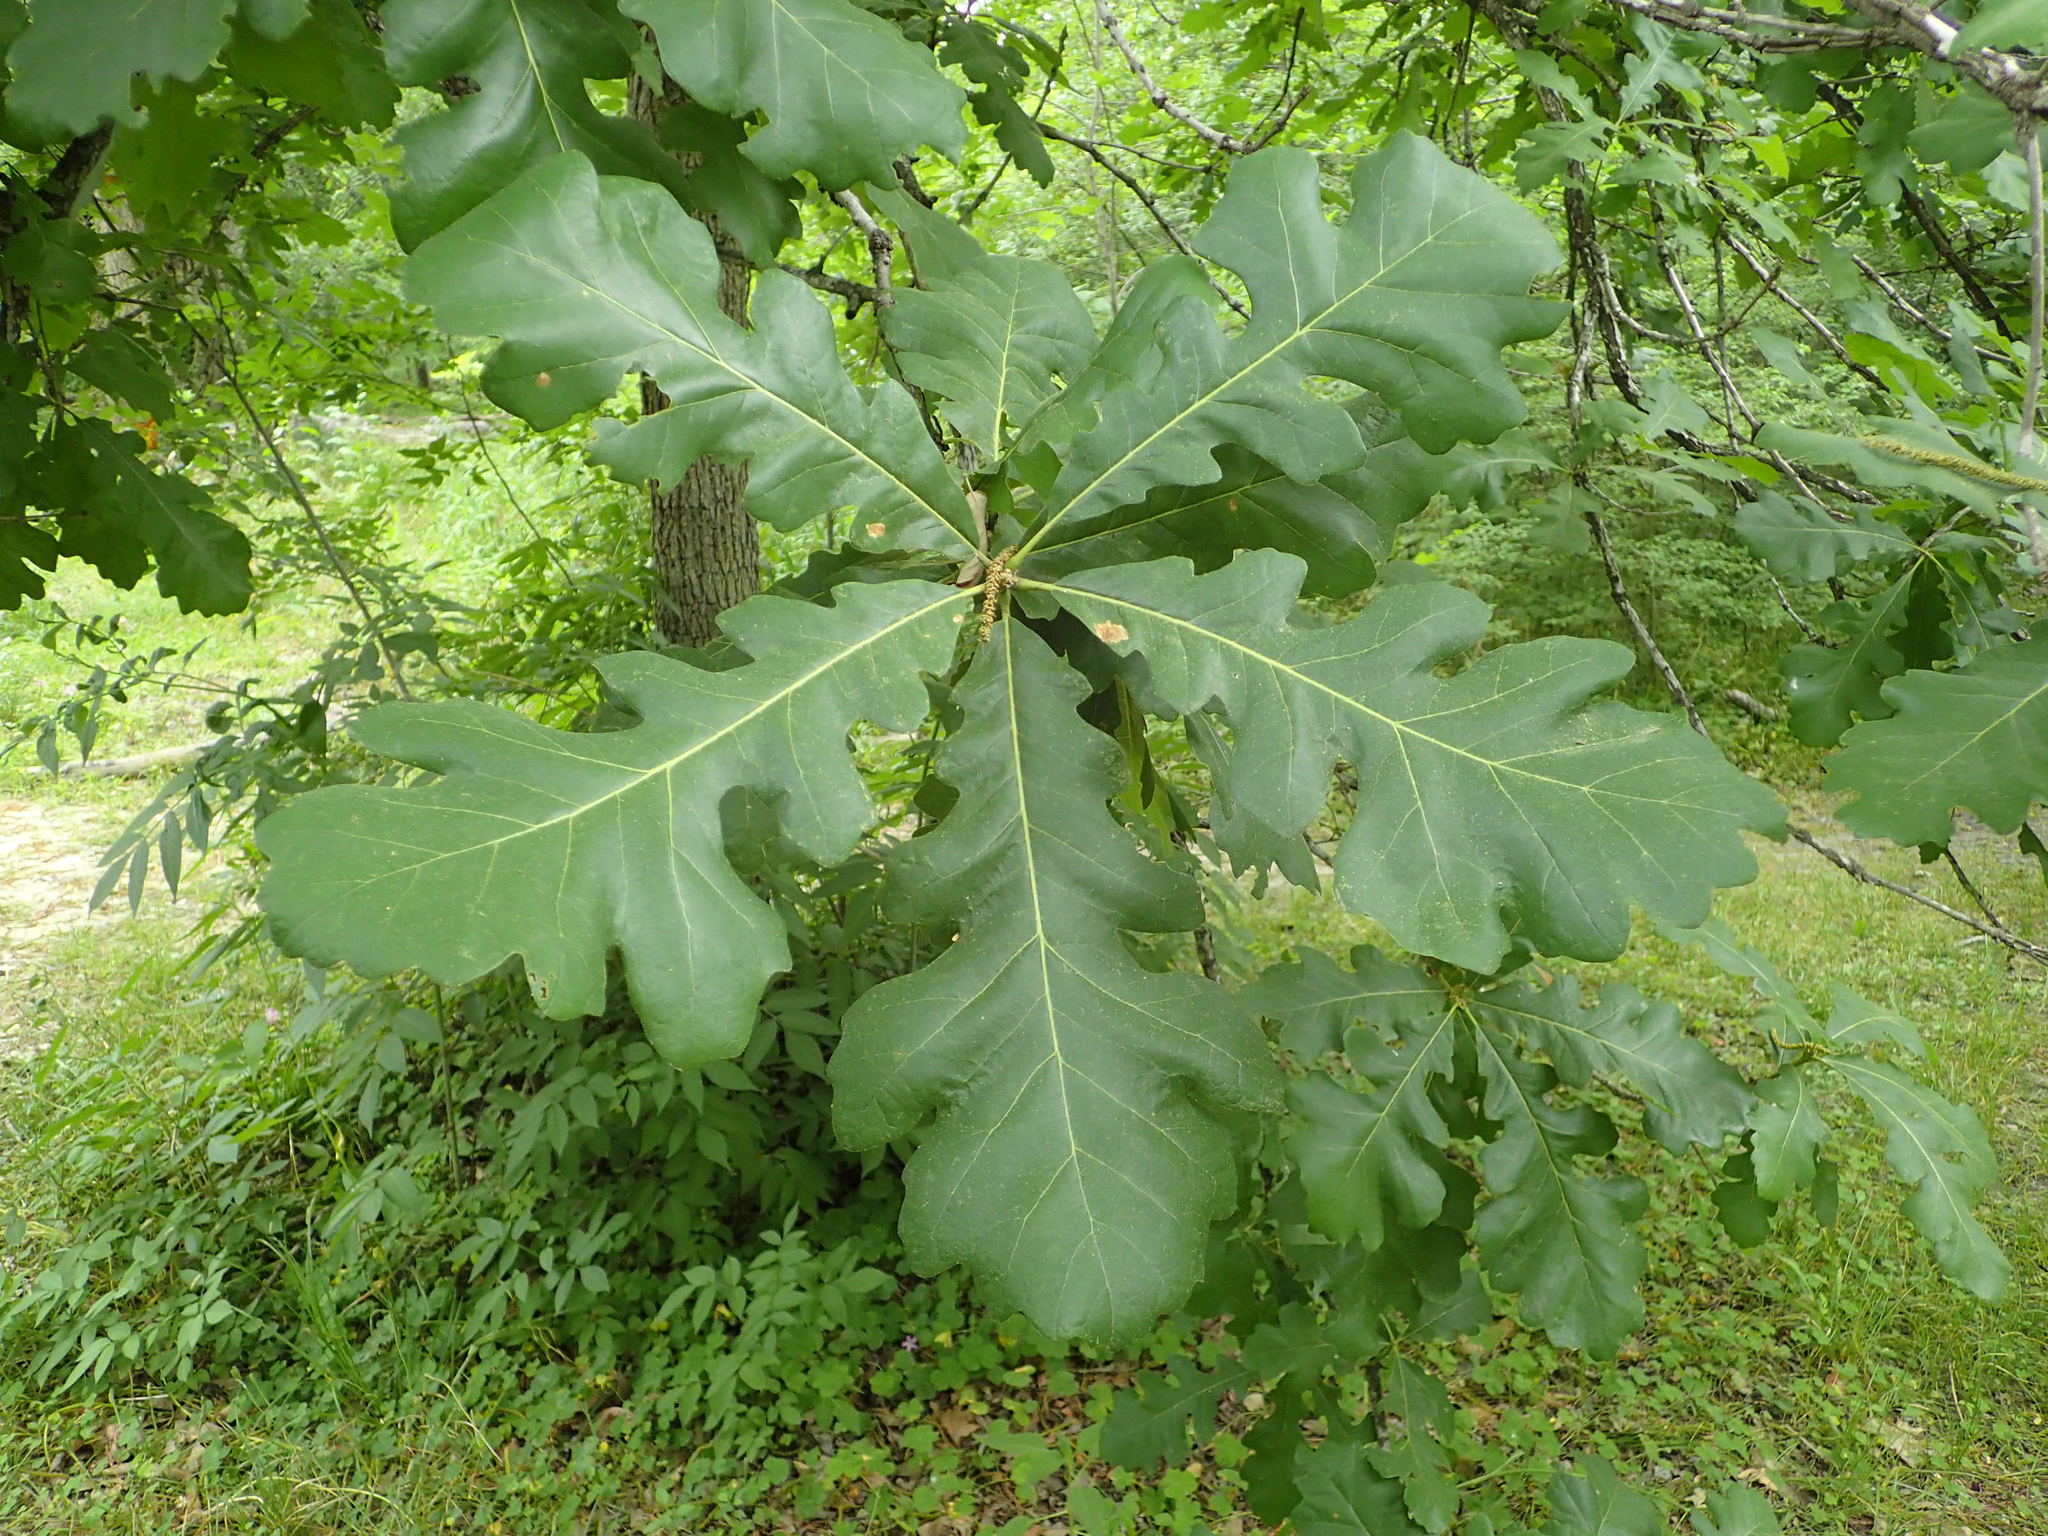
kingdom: Plantae
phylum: Tracheophyta
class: Magnoliopsida
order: Fagales
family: Fagaceae
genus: Quercus
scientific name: Quercus macrocarpa
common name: Bur oak
